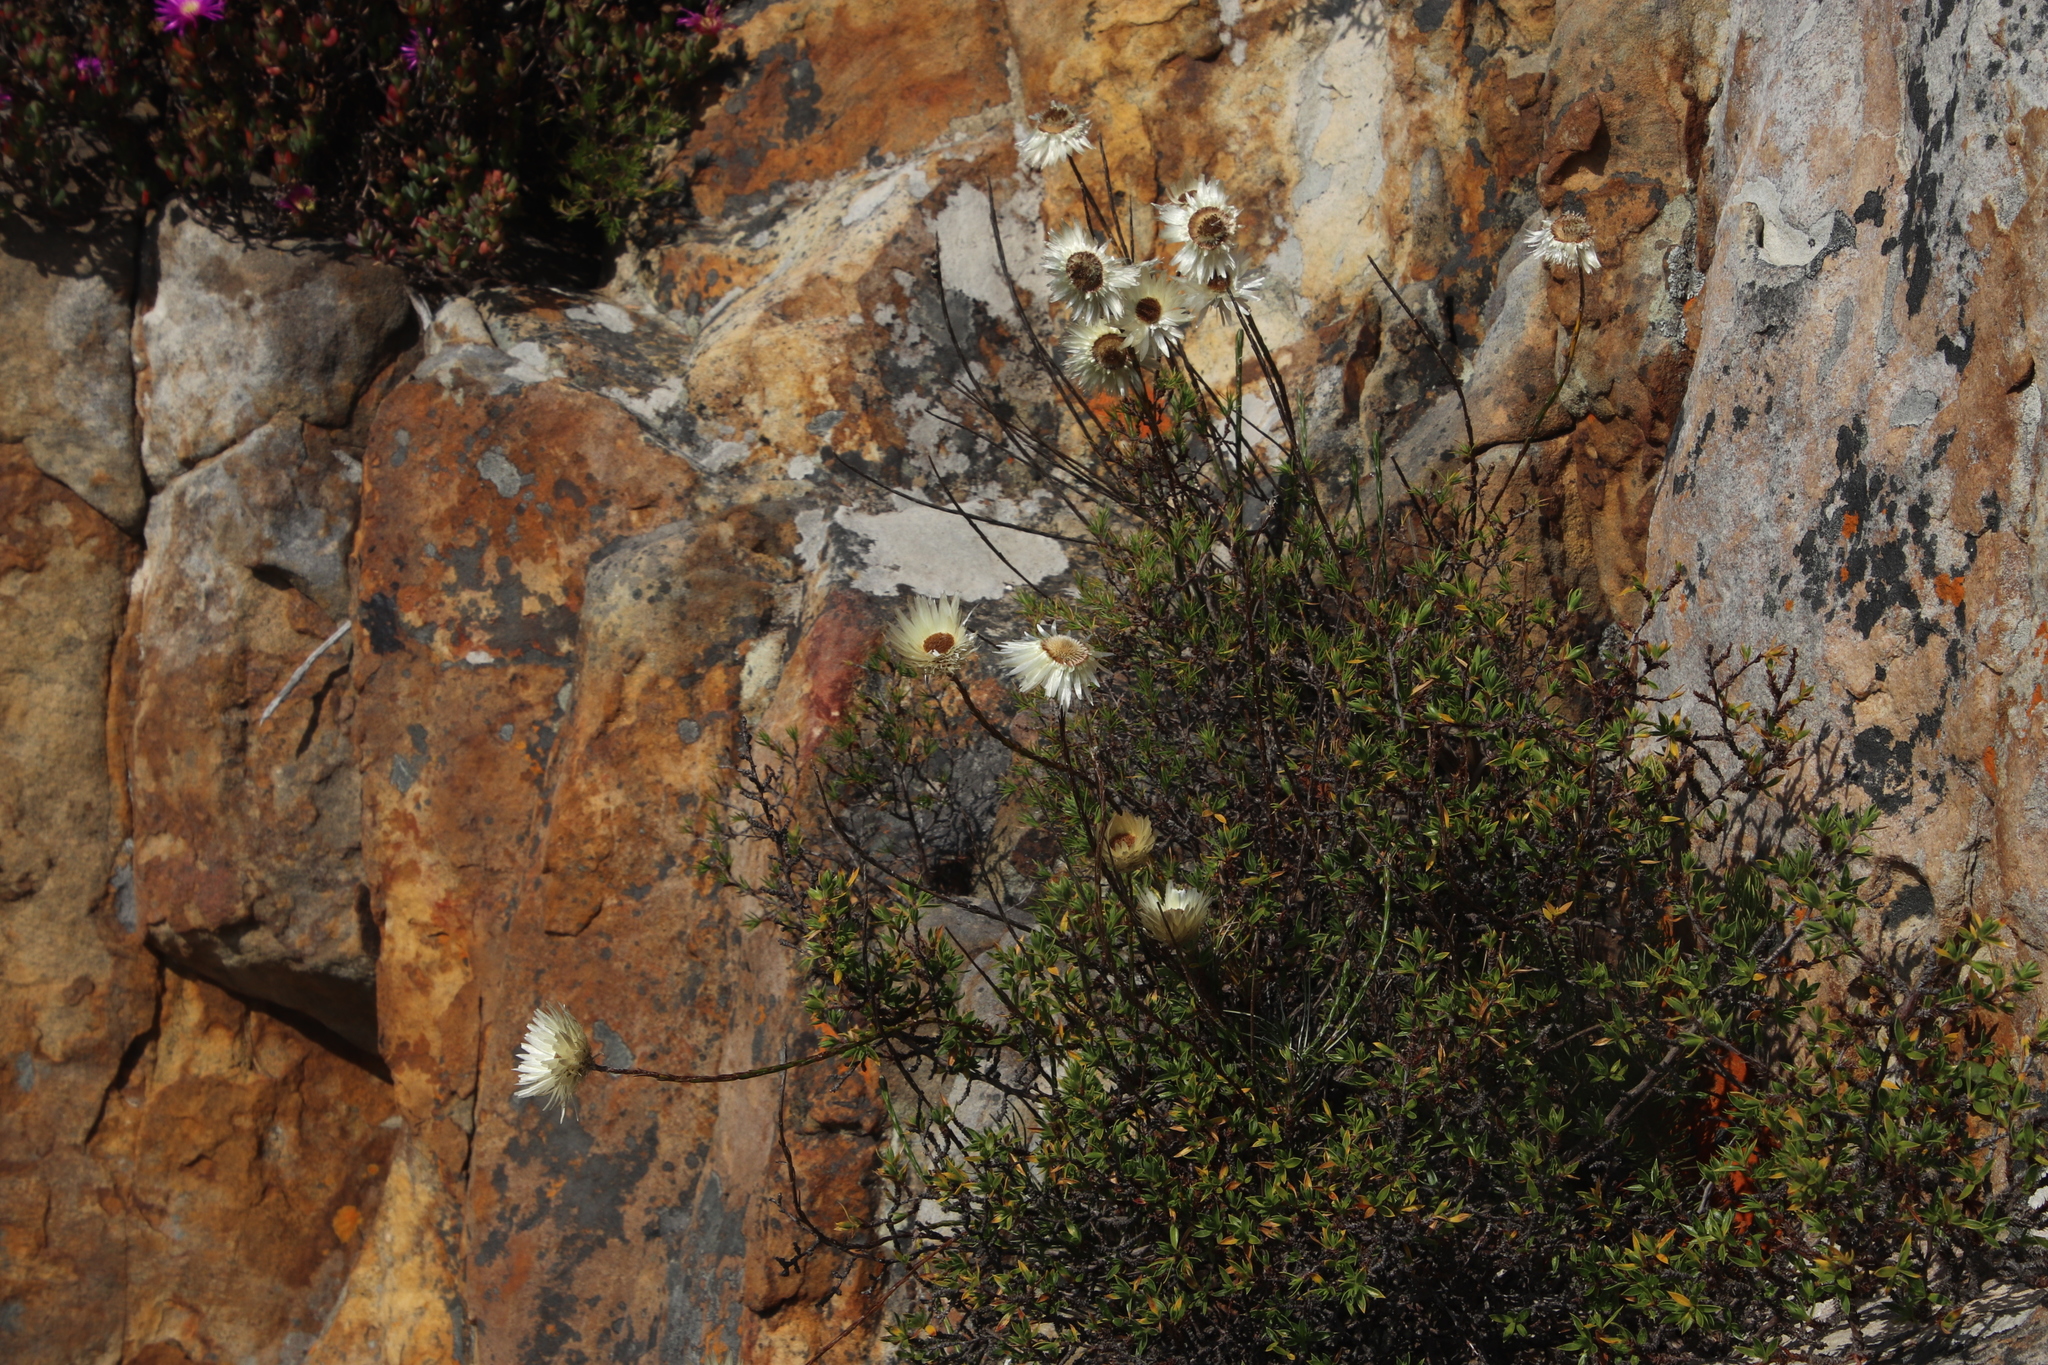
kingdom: Plantae
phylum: Tracheophyta
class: Magnoliopsida
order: Asterales
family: Asteraceae
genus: Edmondia
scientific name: Edmondia sesamoides
